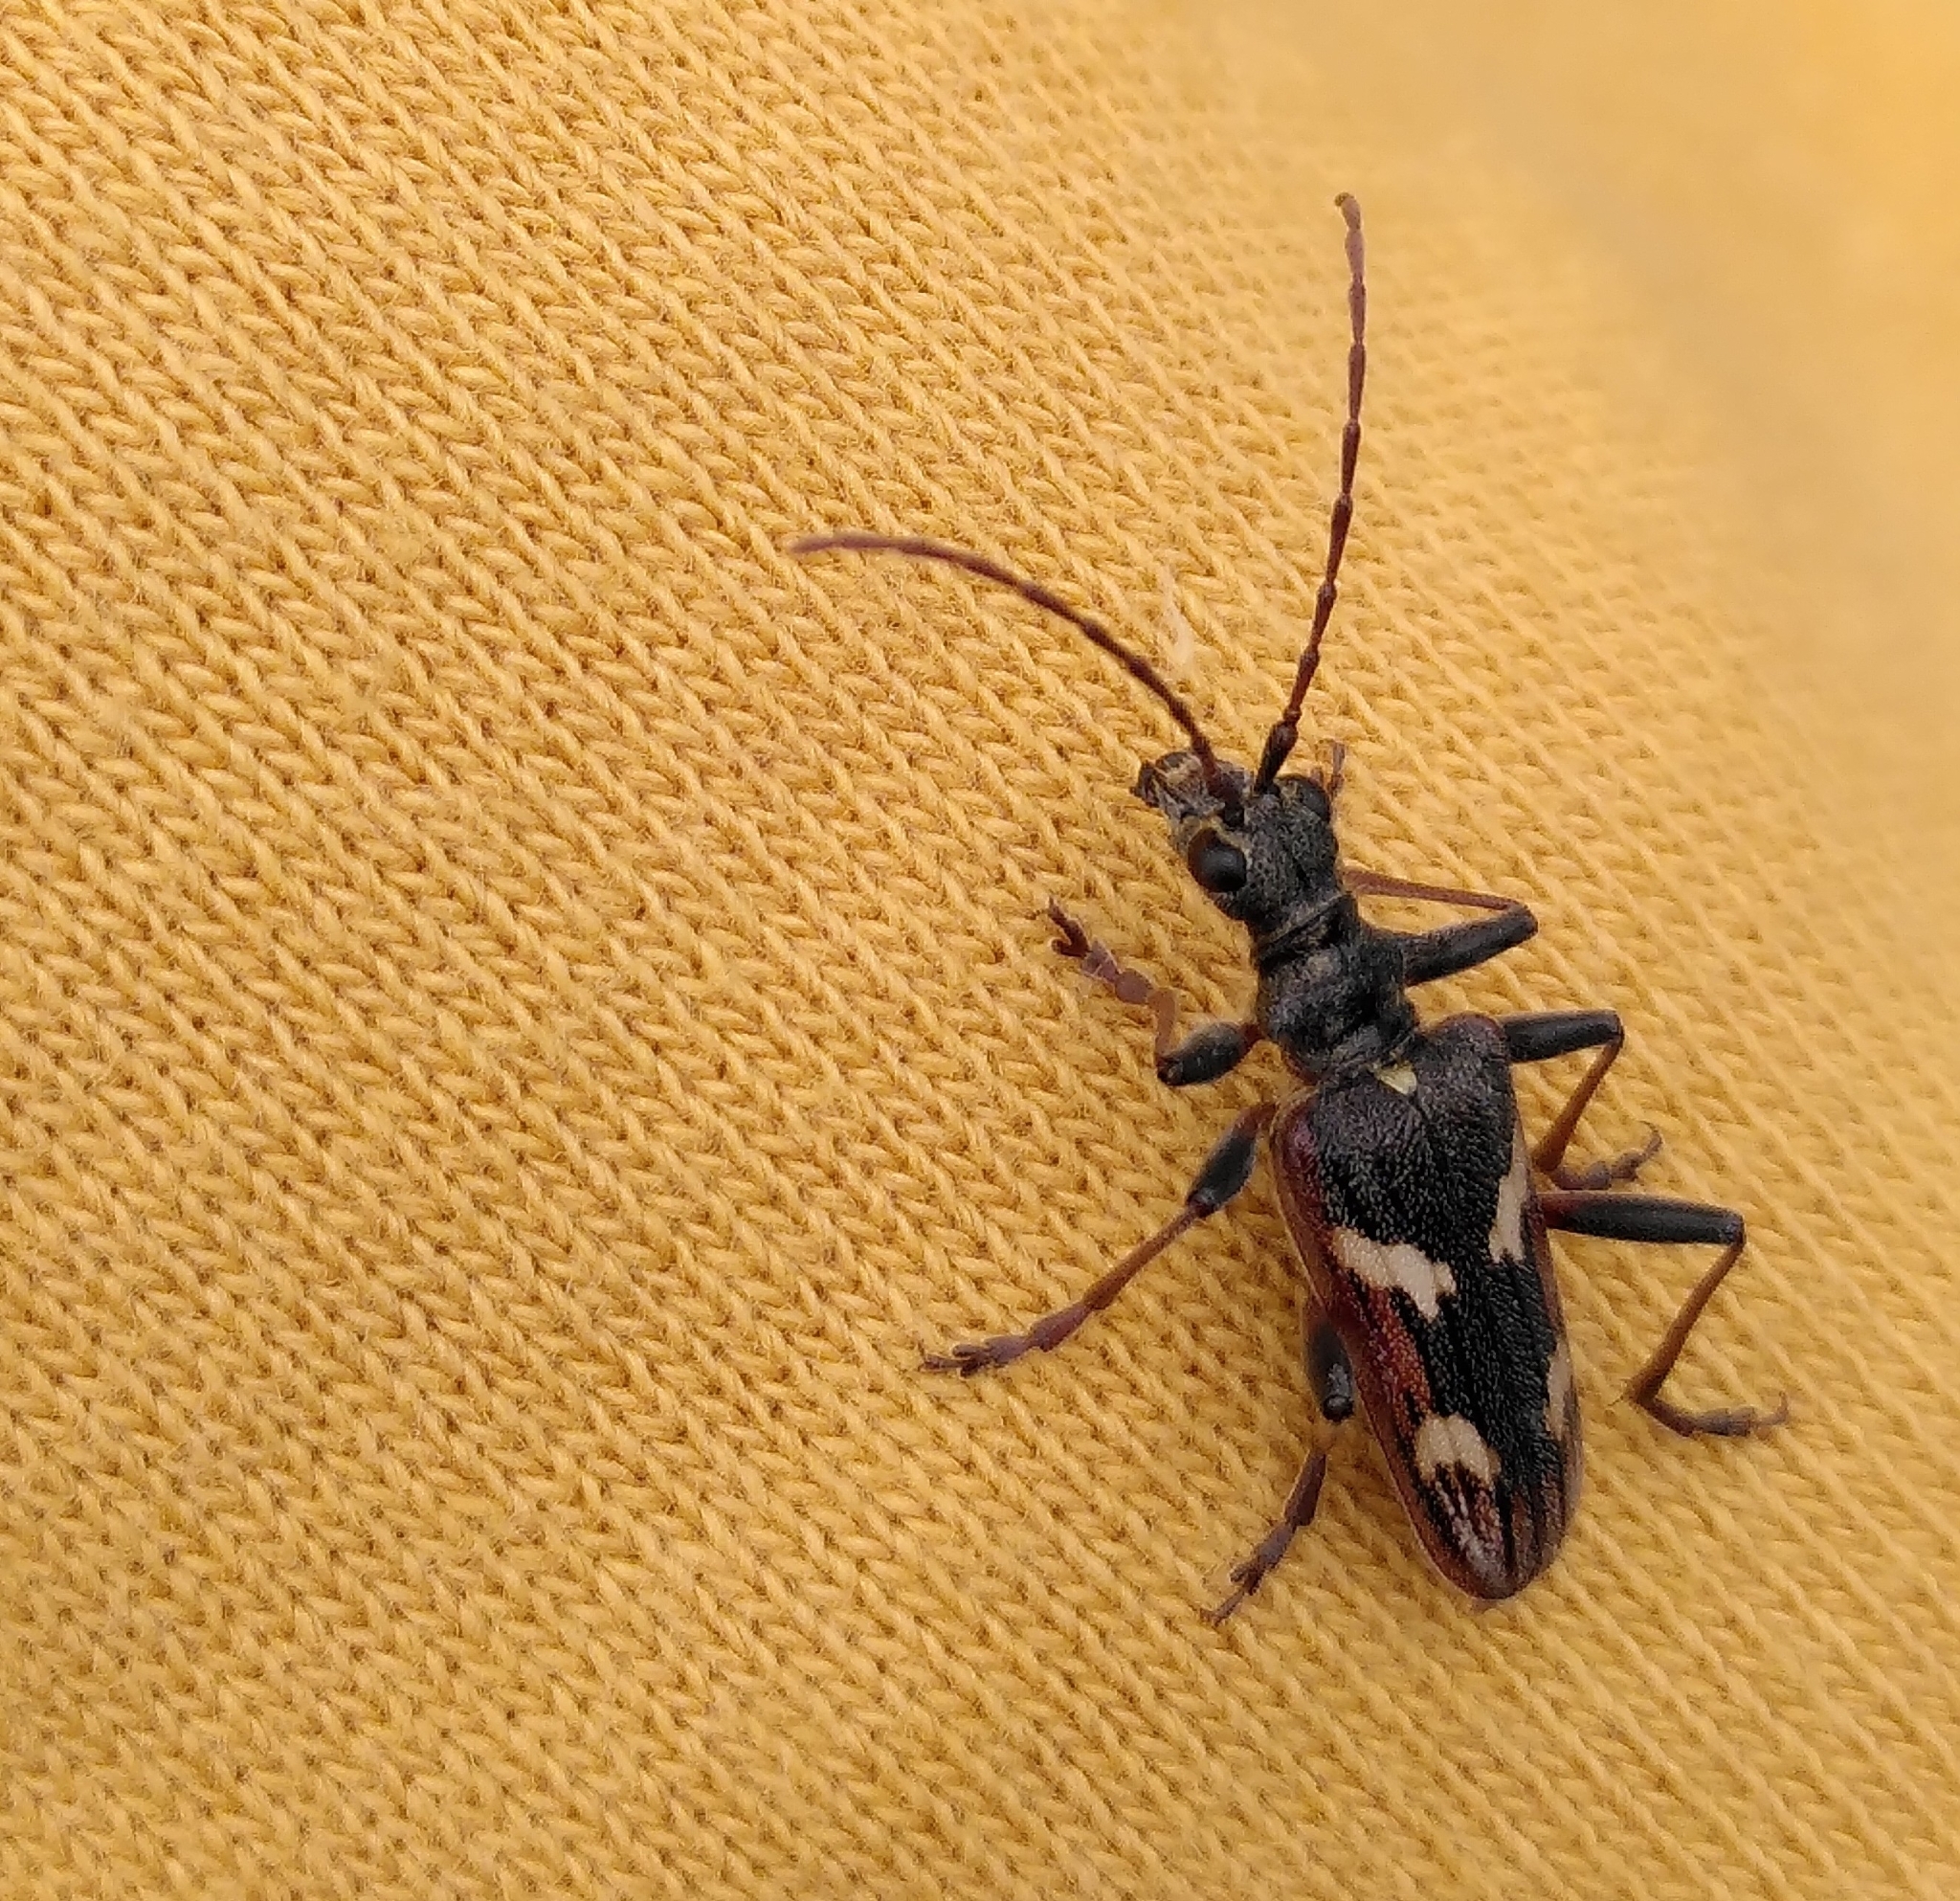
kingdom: Animalia
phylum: Arthropoda
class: Insecta
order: Coleoptera
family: Cerambycidae
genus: Rhagium
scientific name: Rhagium bifasciatum
